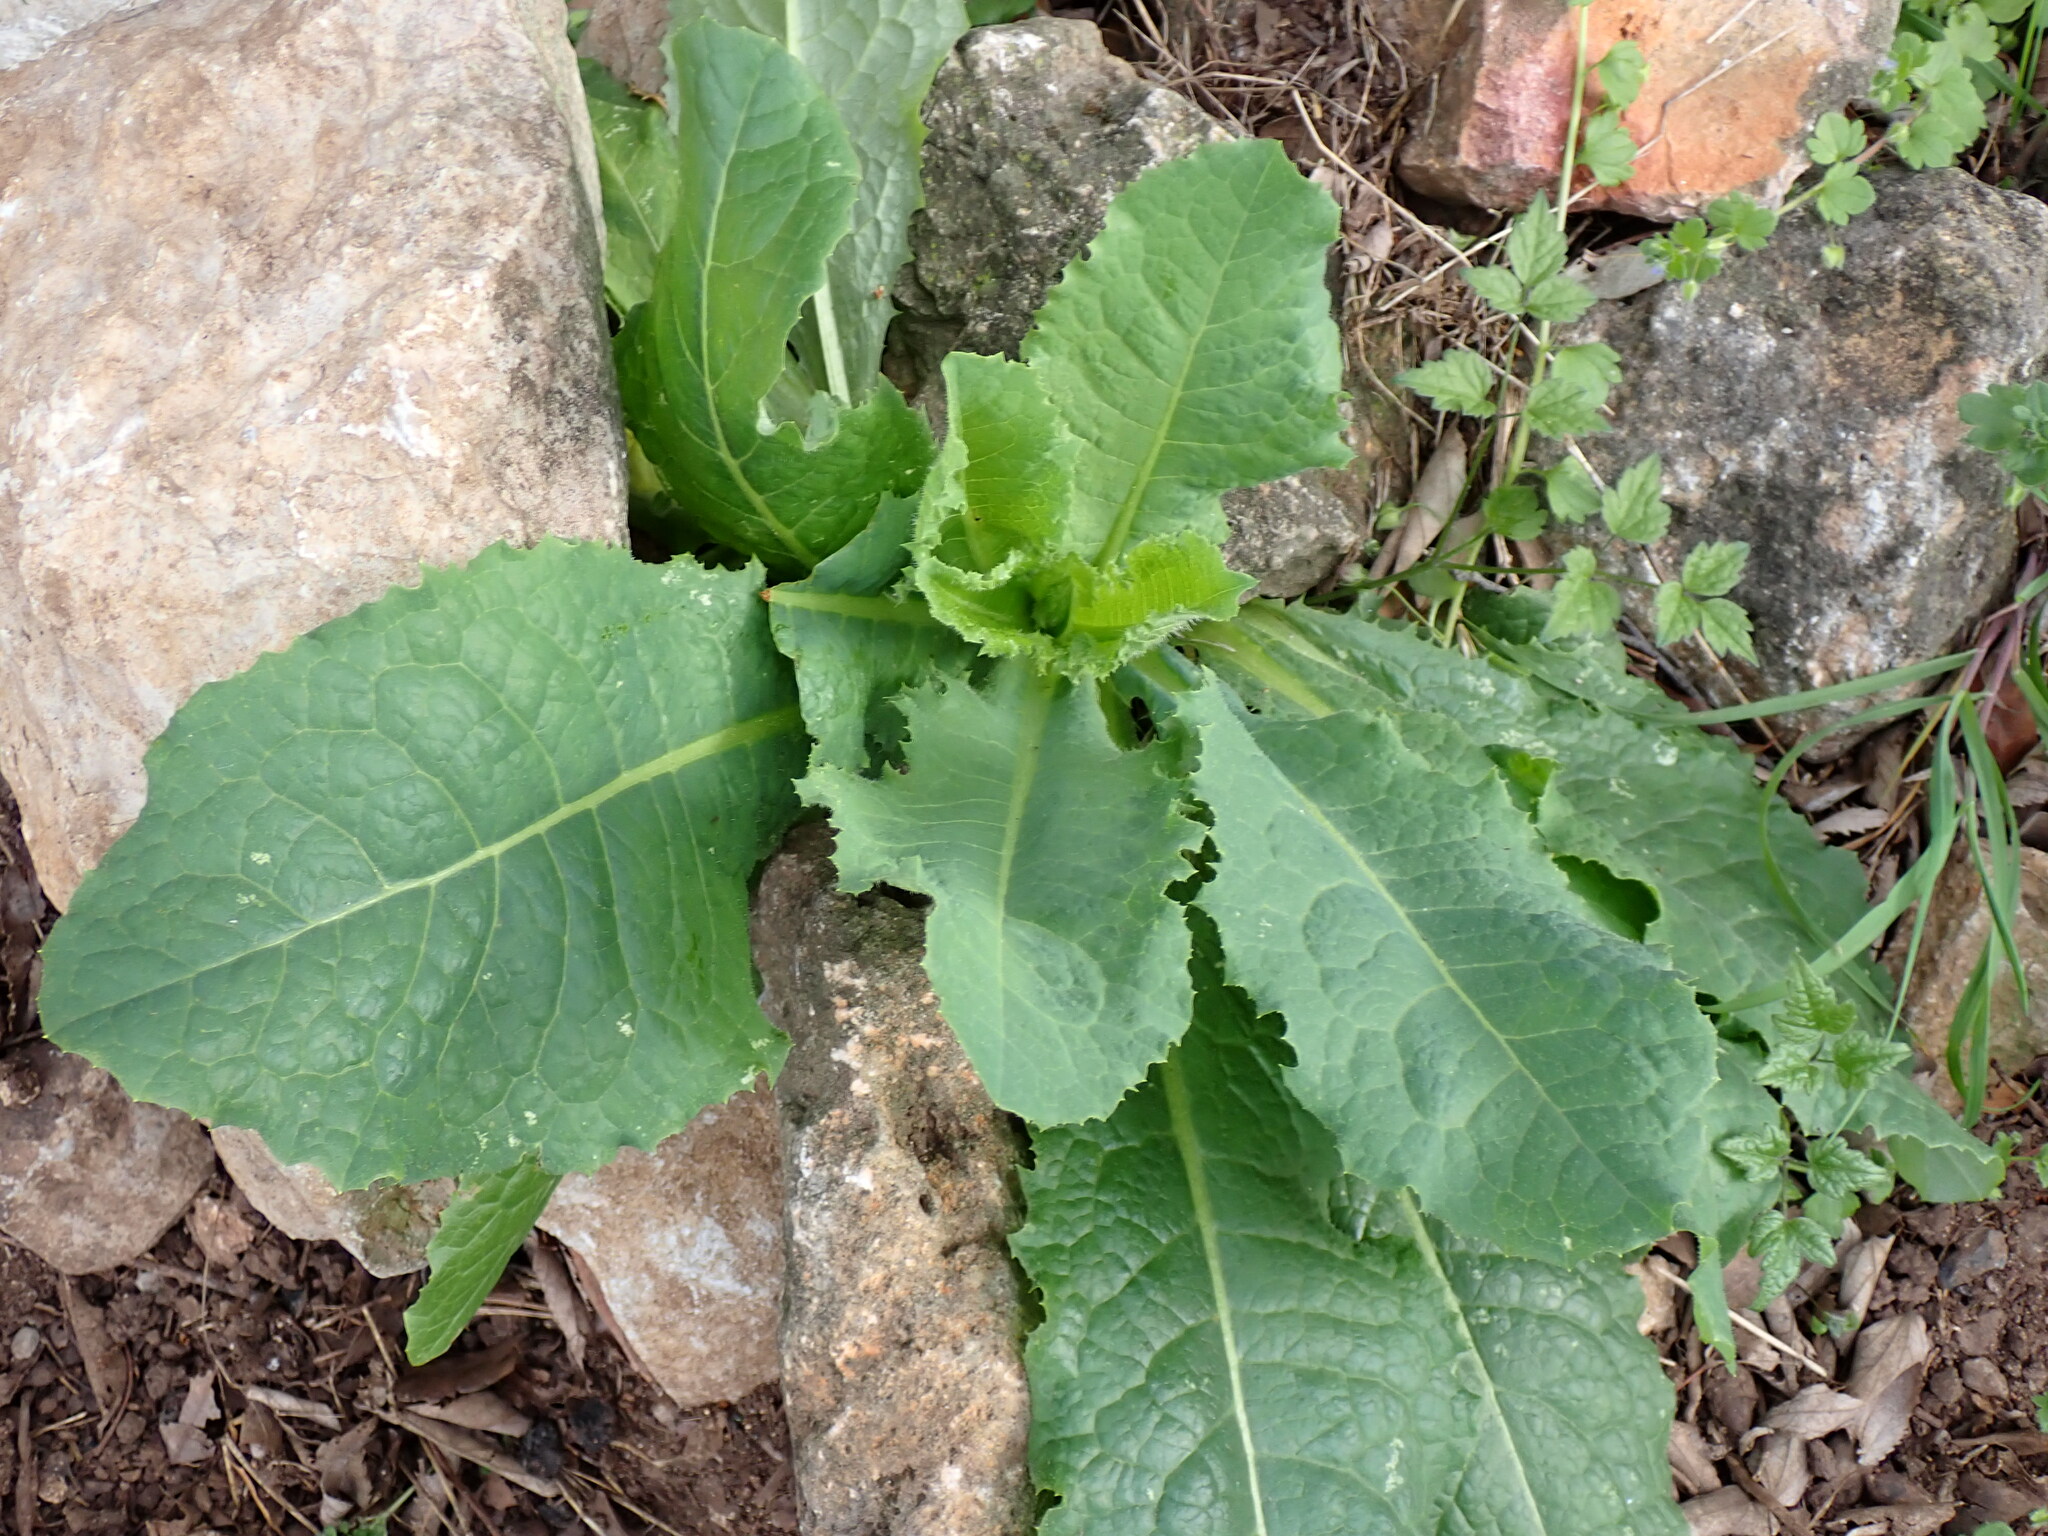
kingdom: Plantae
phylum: Tracheophyta
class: Magnoliopsida
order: Asterales
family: Asteraceae
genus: Lactuca
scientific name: Lactuca virosa
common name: Great lettuce
